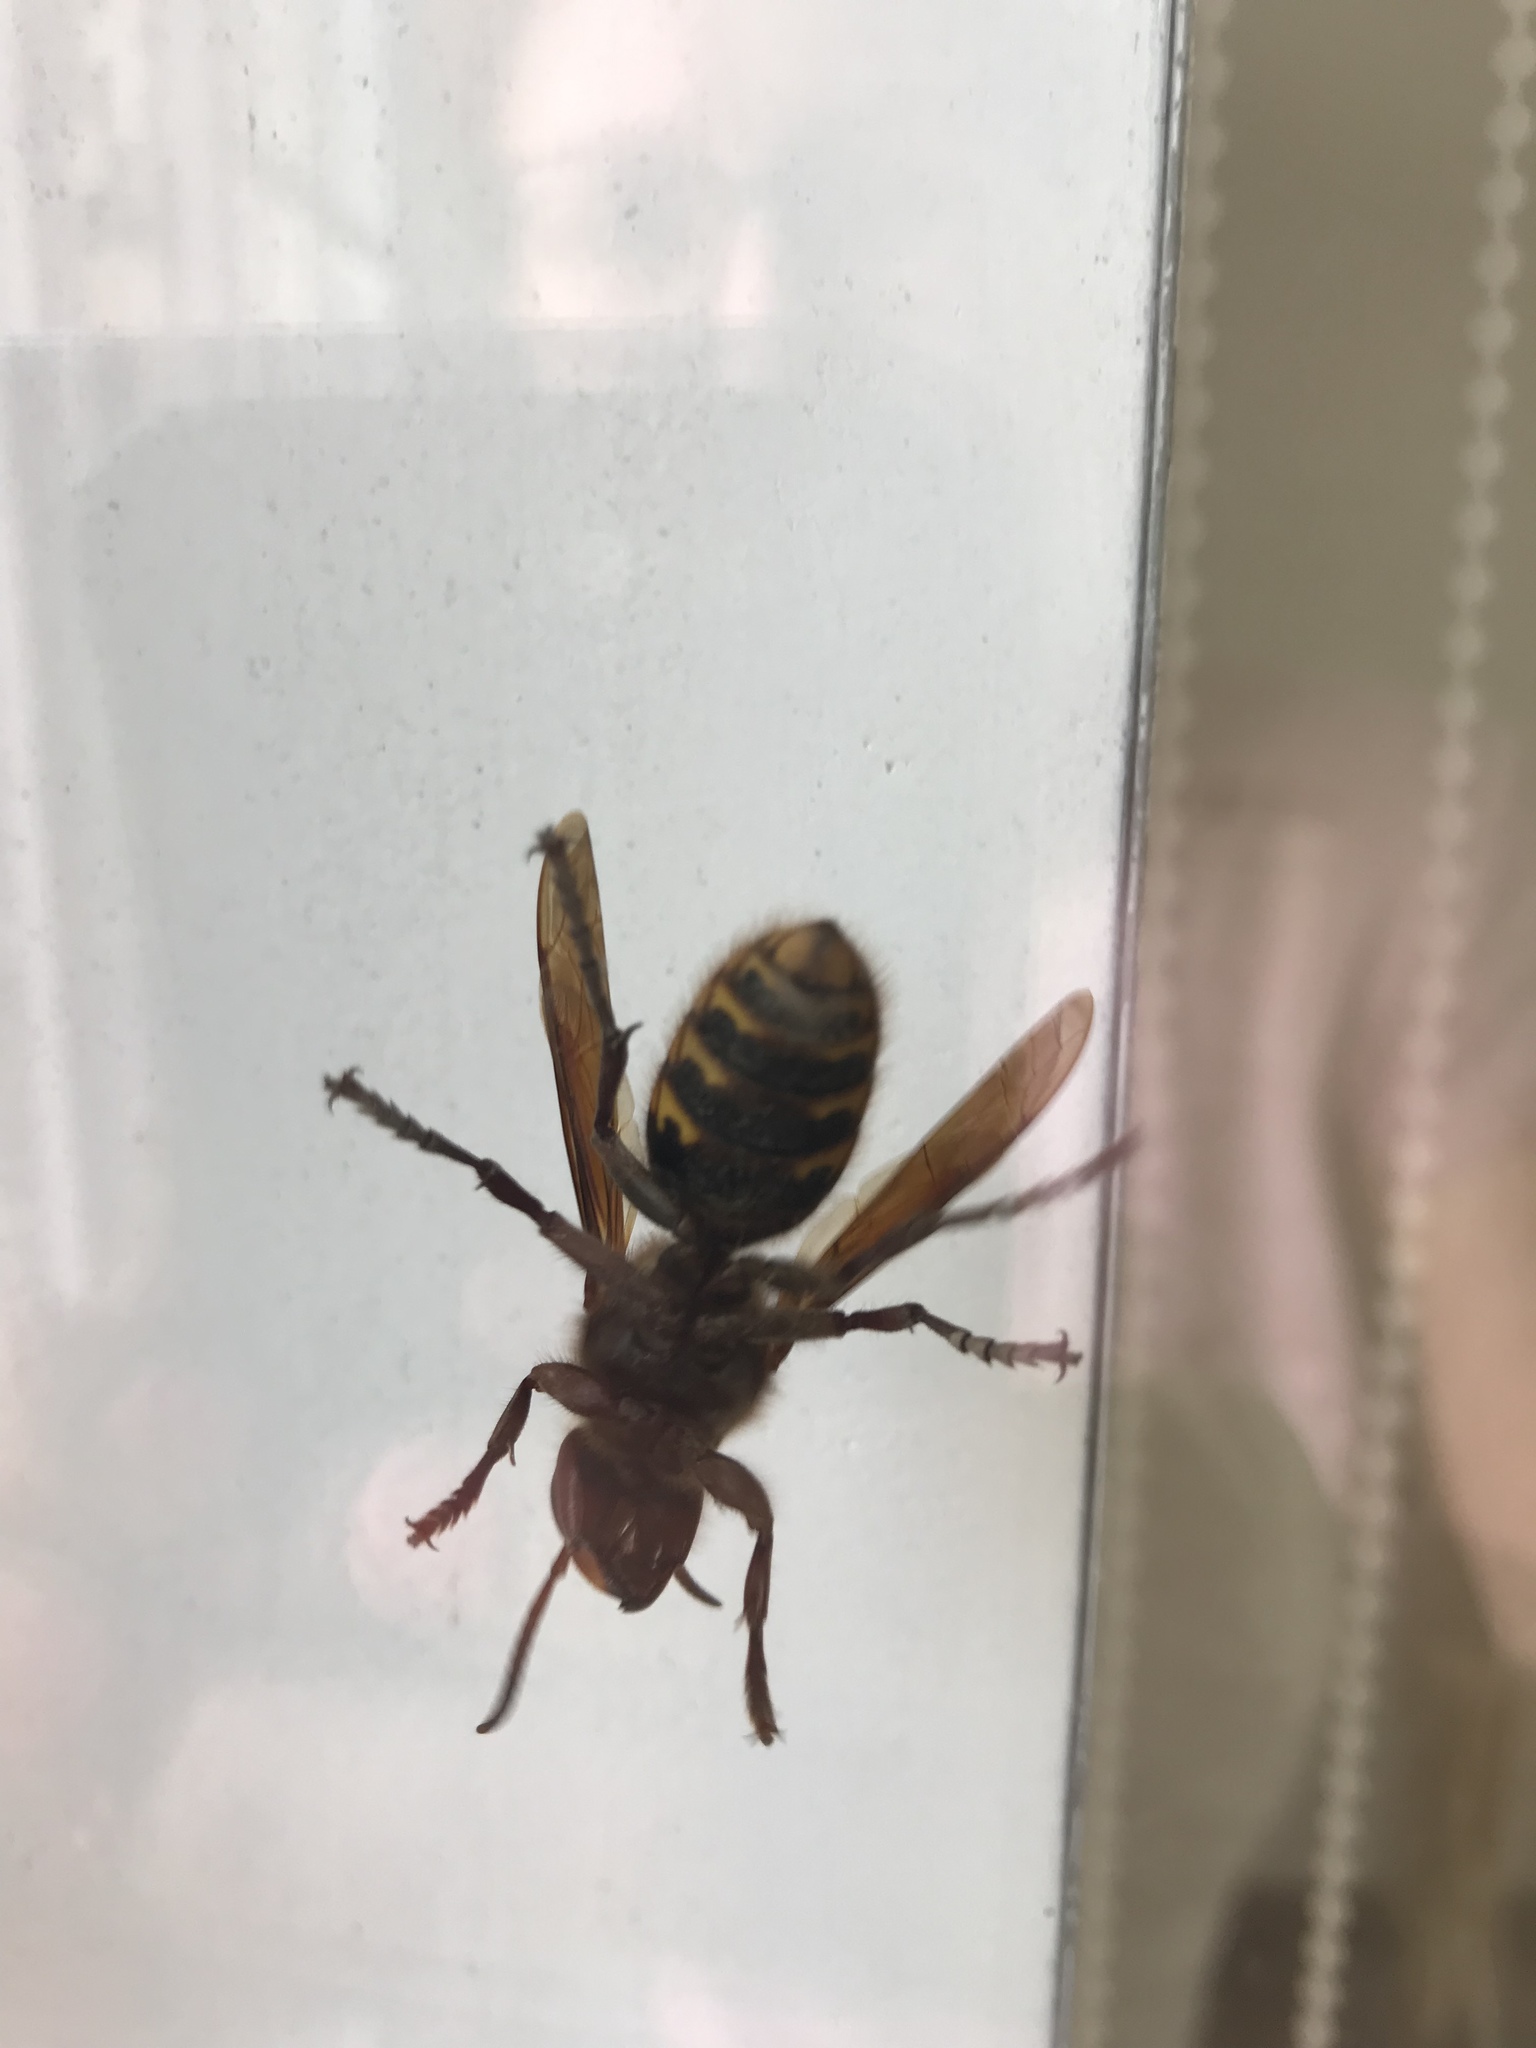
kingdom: Animalia
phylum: Arthropoda
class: Insecta
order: Hymenoptera
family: Vespidae
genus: Vespa
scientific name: Vespa crabro
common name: Hornet
